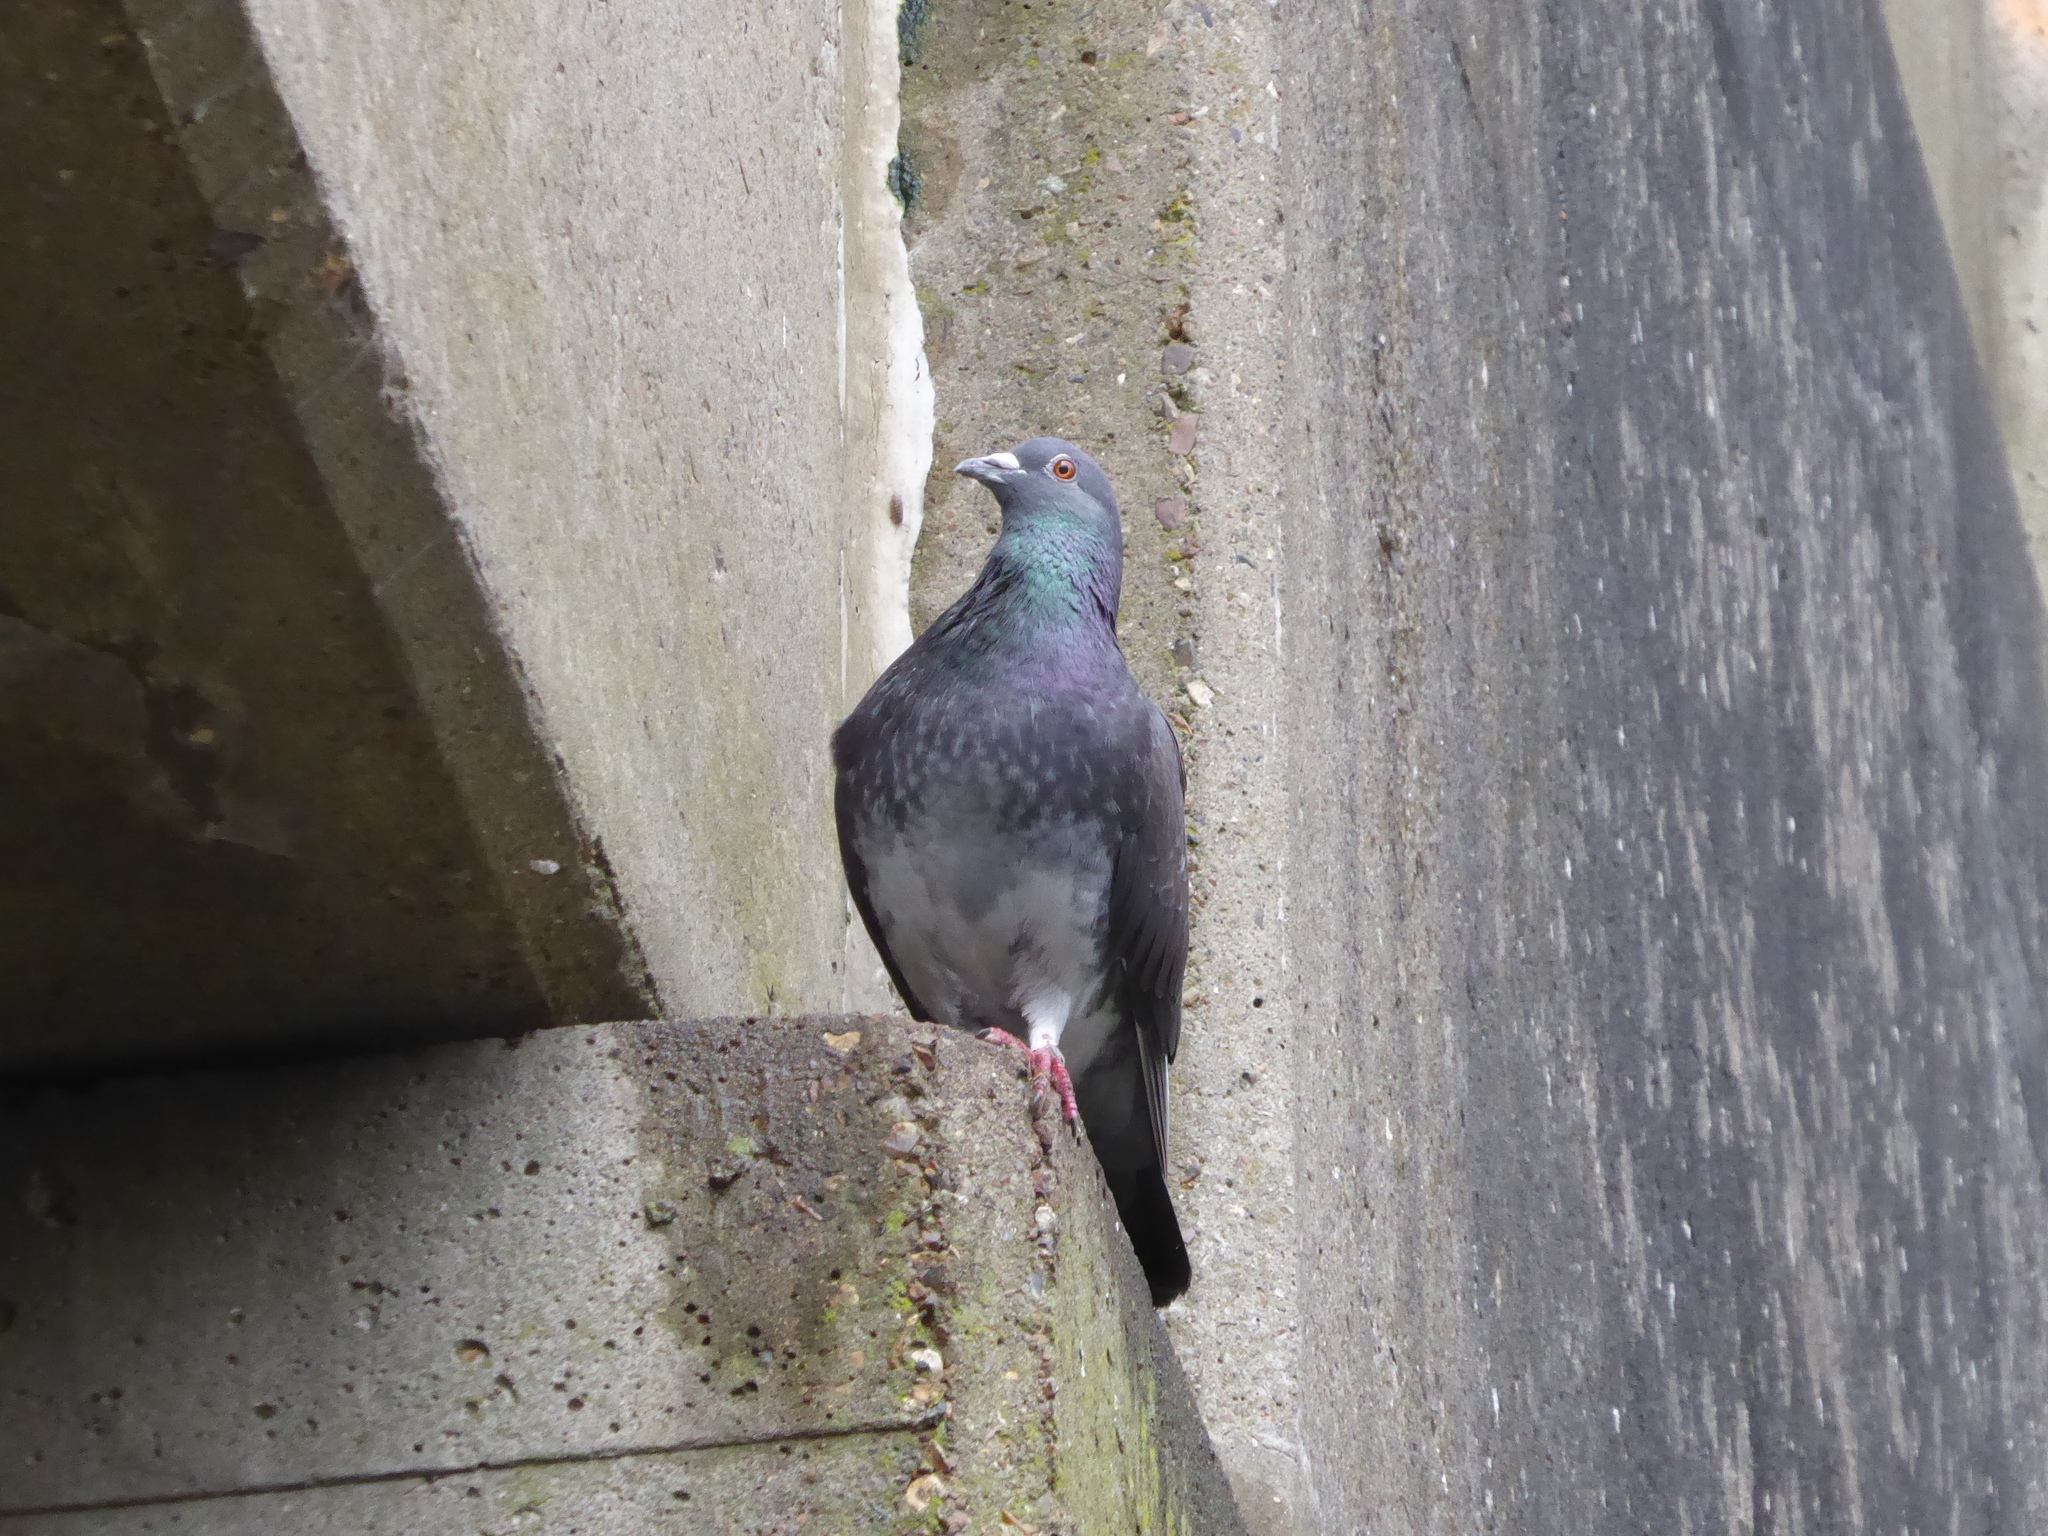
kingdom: Animalia
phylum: Chordata
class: Aves
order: Columbiformes
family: Columbidae
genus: Columba
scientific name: Columba livia
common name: Rock pigeon
